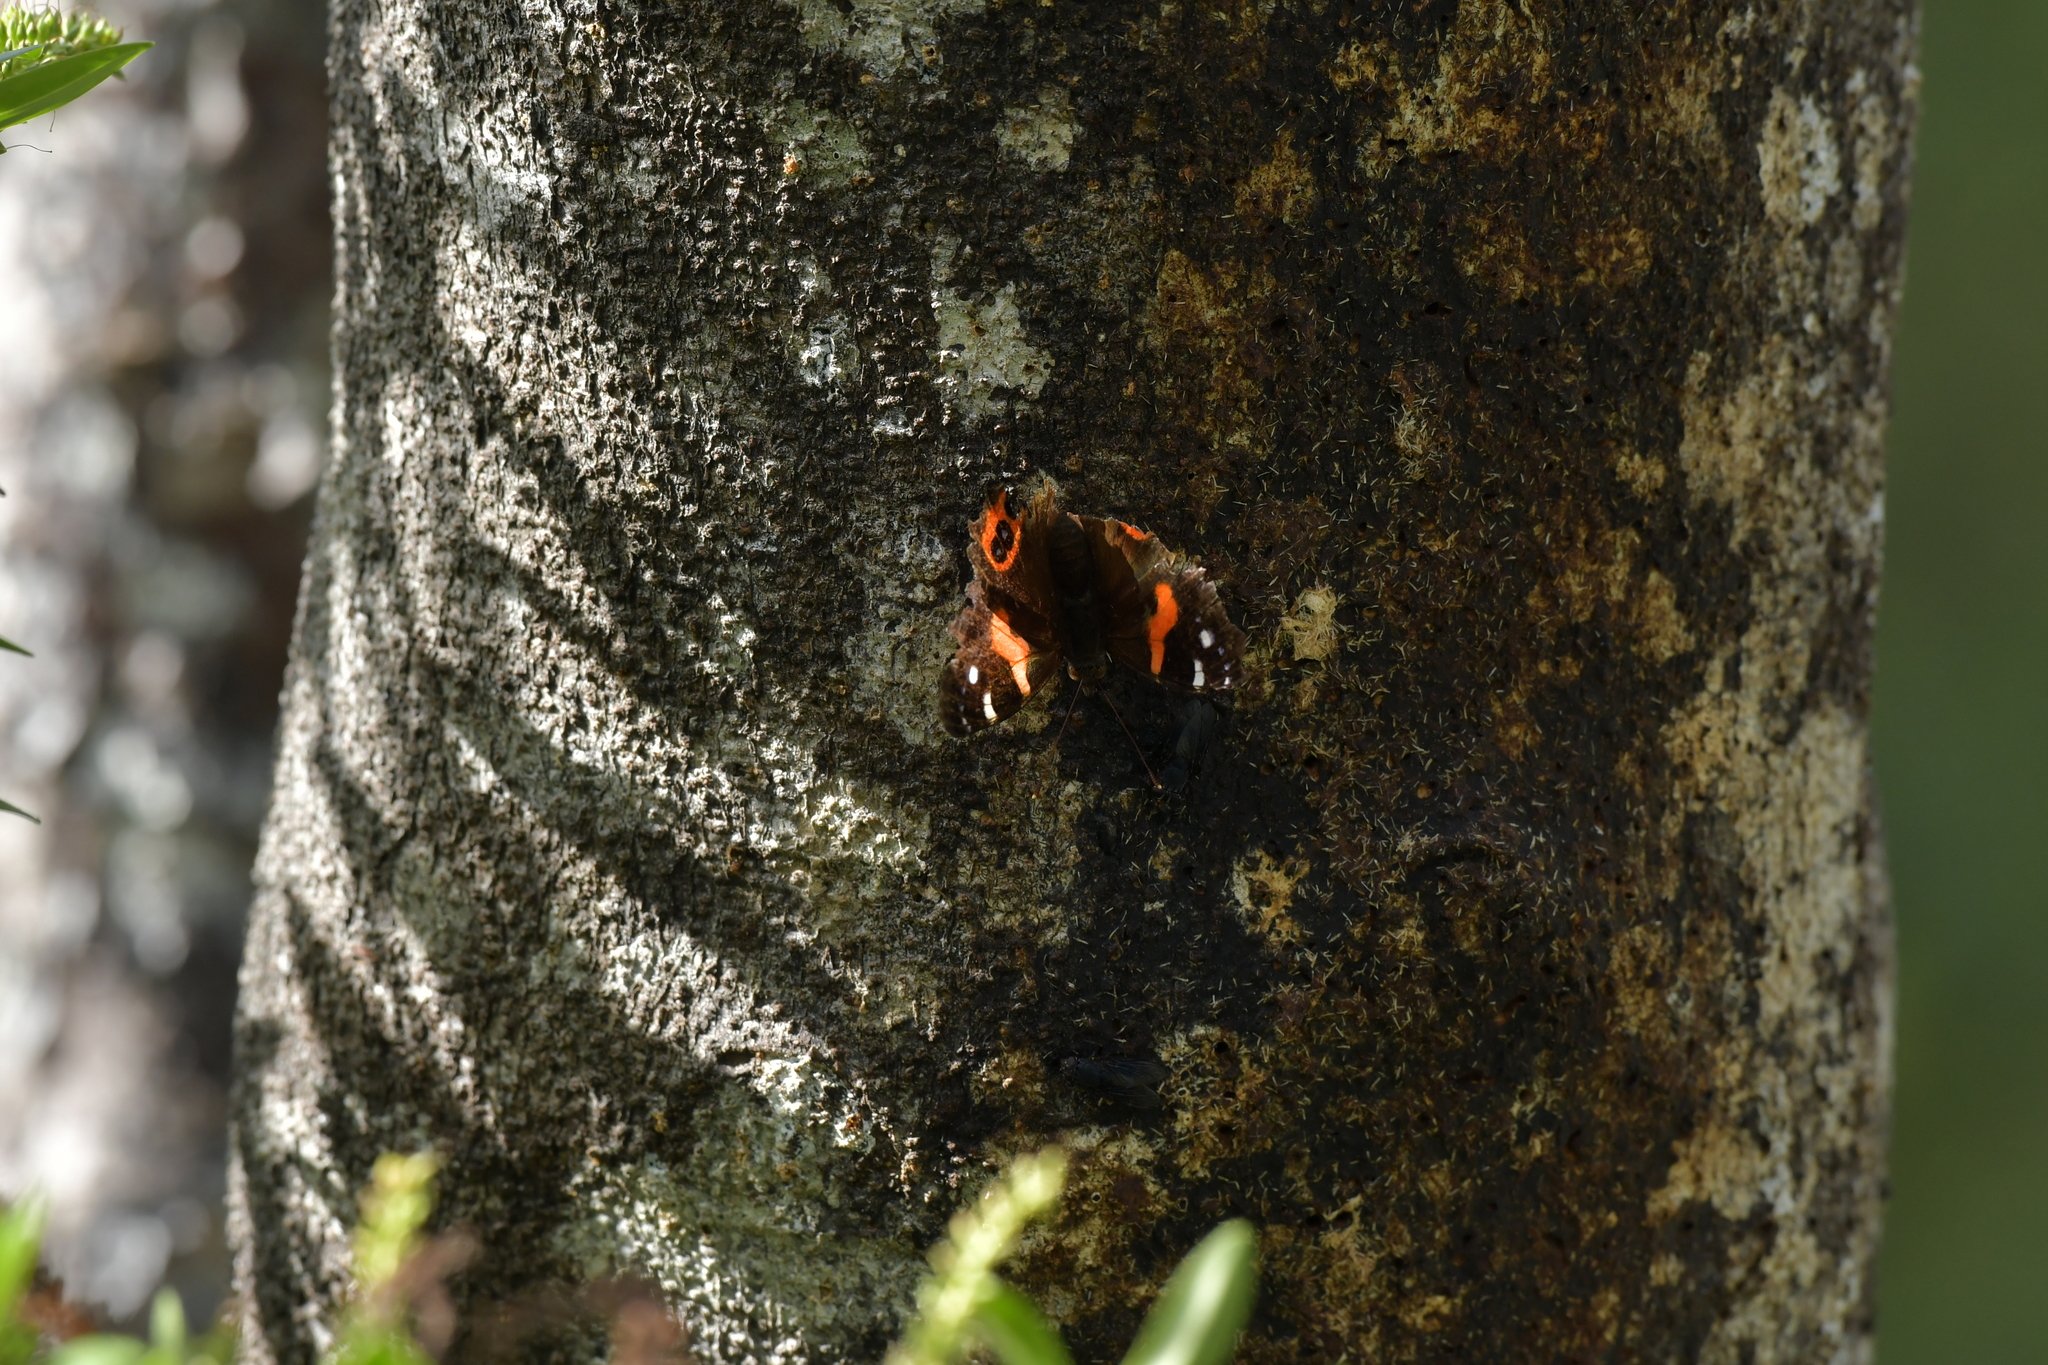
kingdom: Animalia
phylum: Arthropoda
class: Insecta
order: Lepidoptera
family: Nymphalidae
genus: Vanessa
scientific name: Vanessa gonerilla
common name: New zealand red admiral
